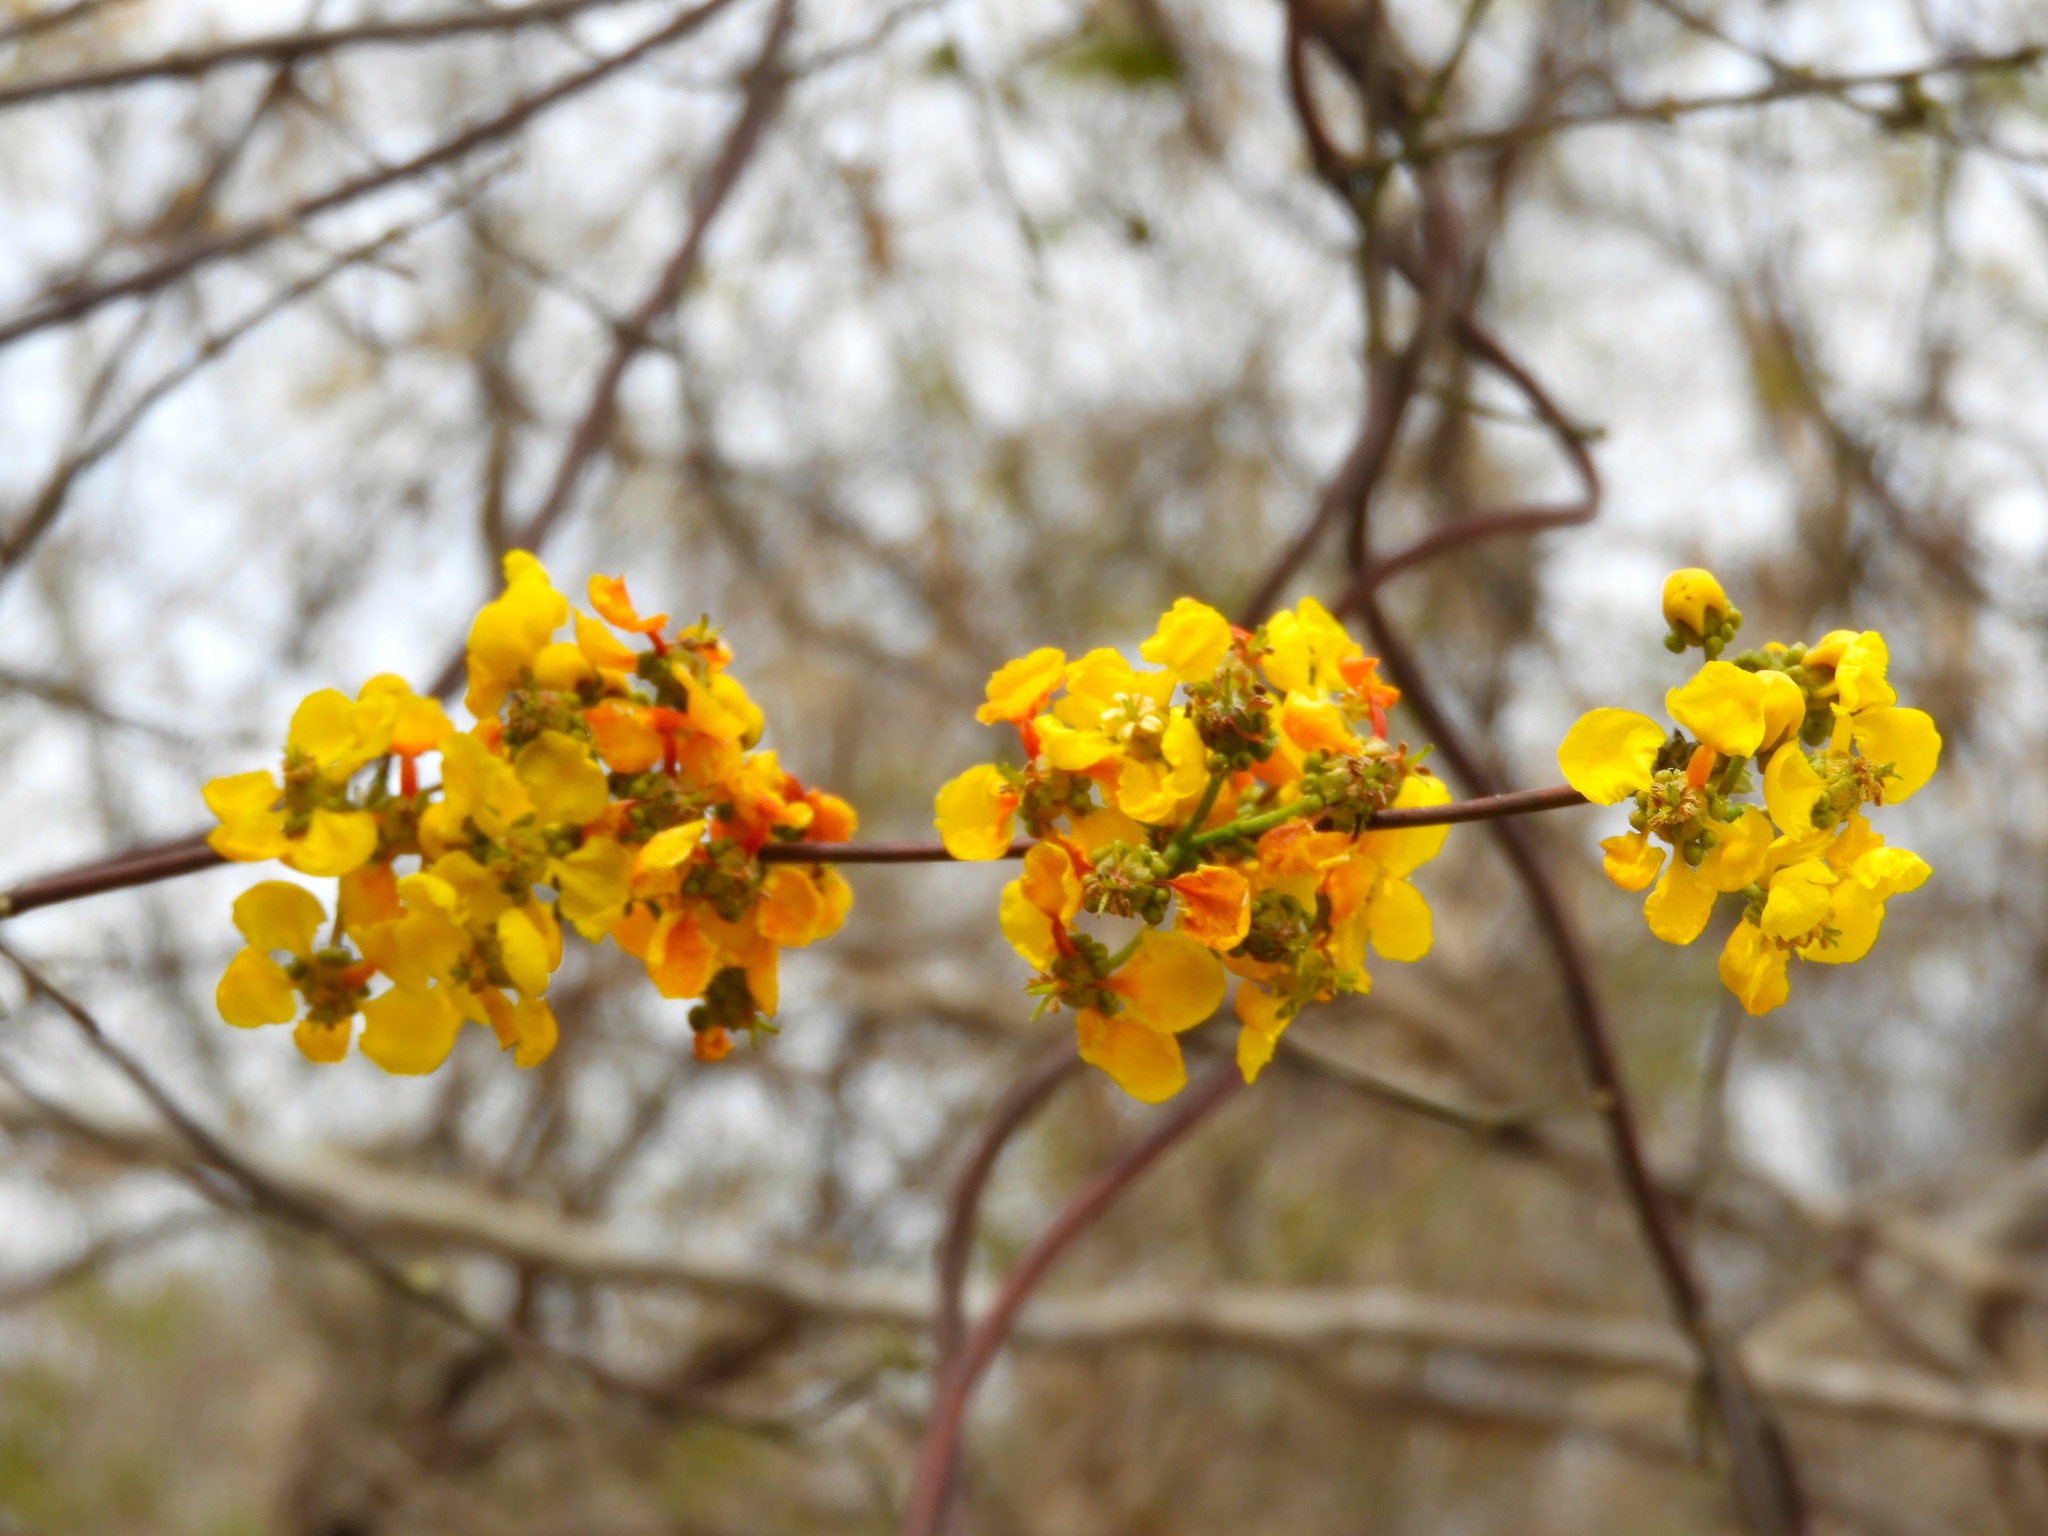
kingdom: Plantae
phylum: Tracheophyta
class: Magnoliopsida
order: Malpighiales
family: Malpighiaceae
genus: Tetrapterys
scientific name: Tetrapterys mexicana
